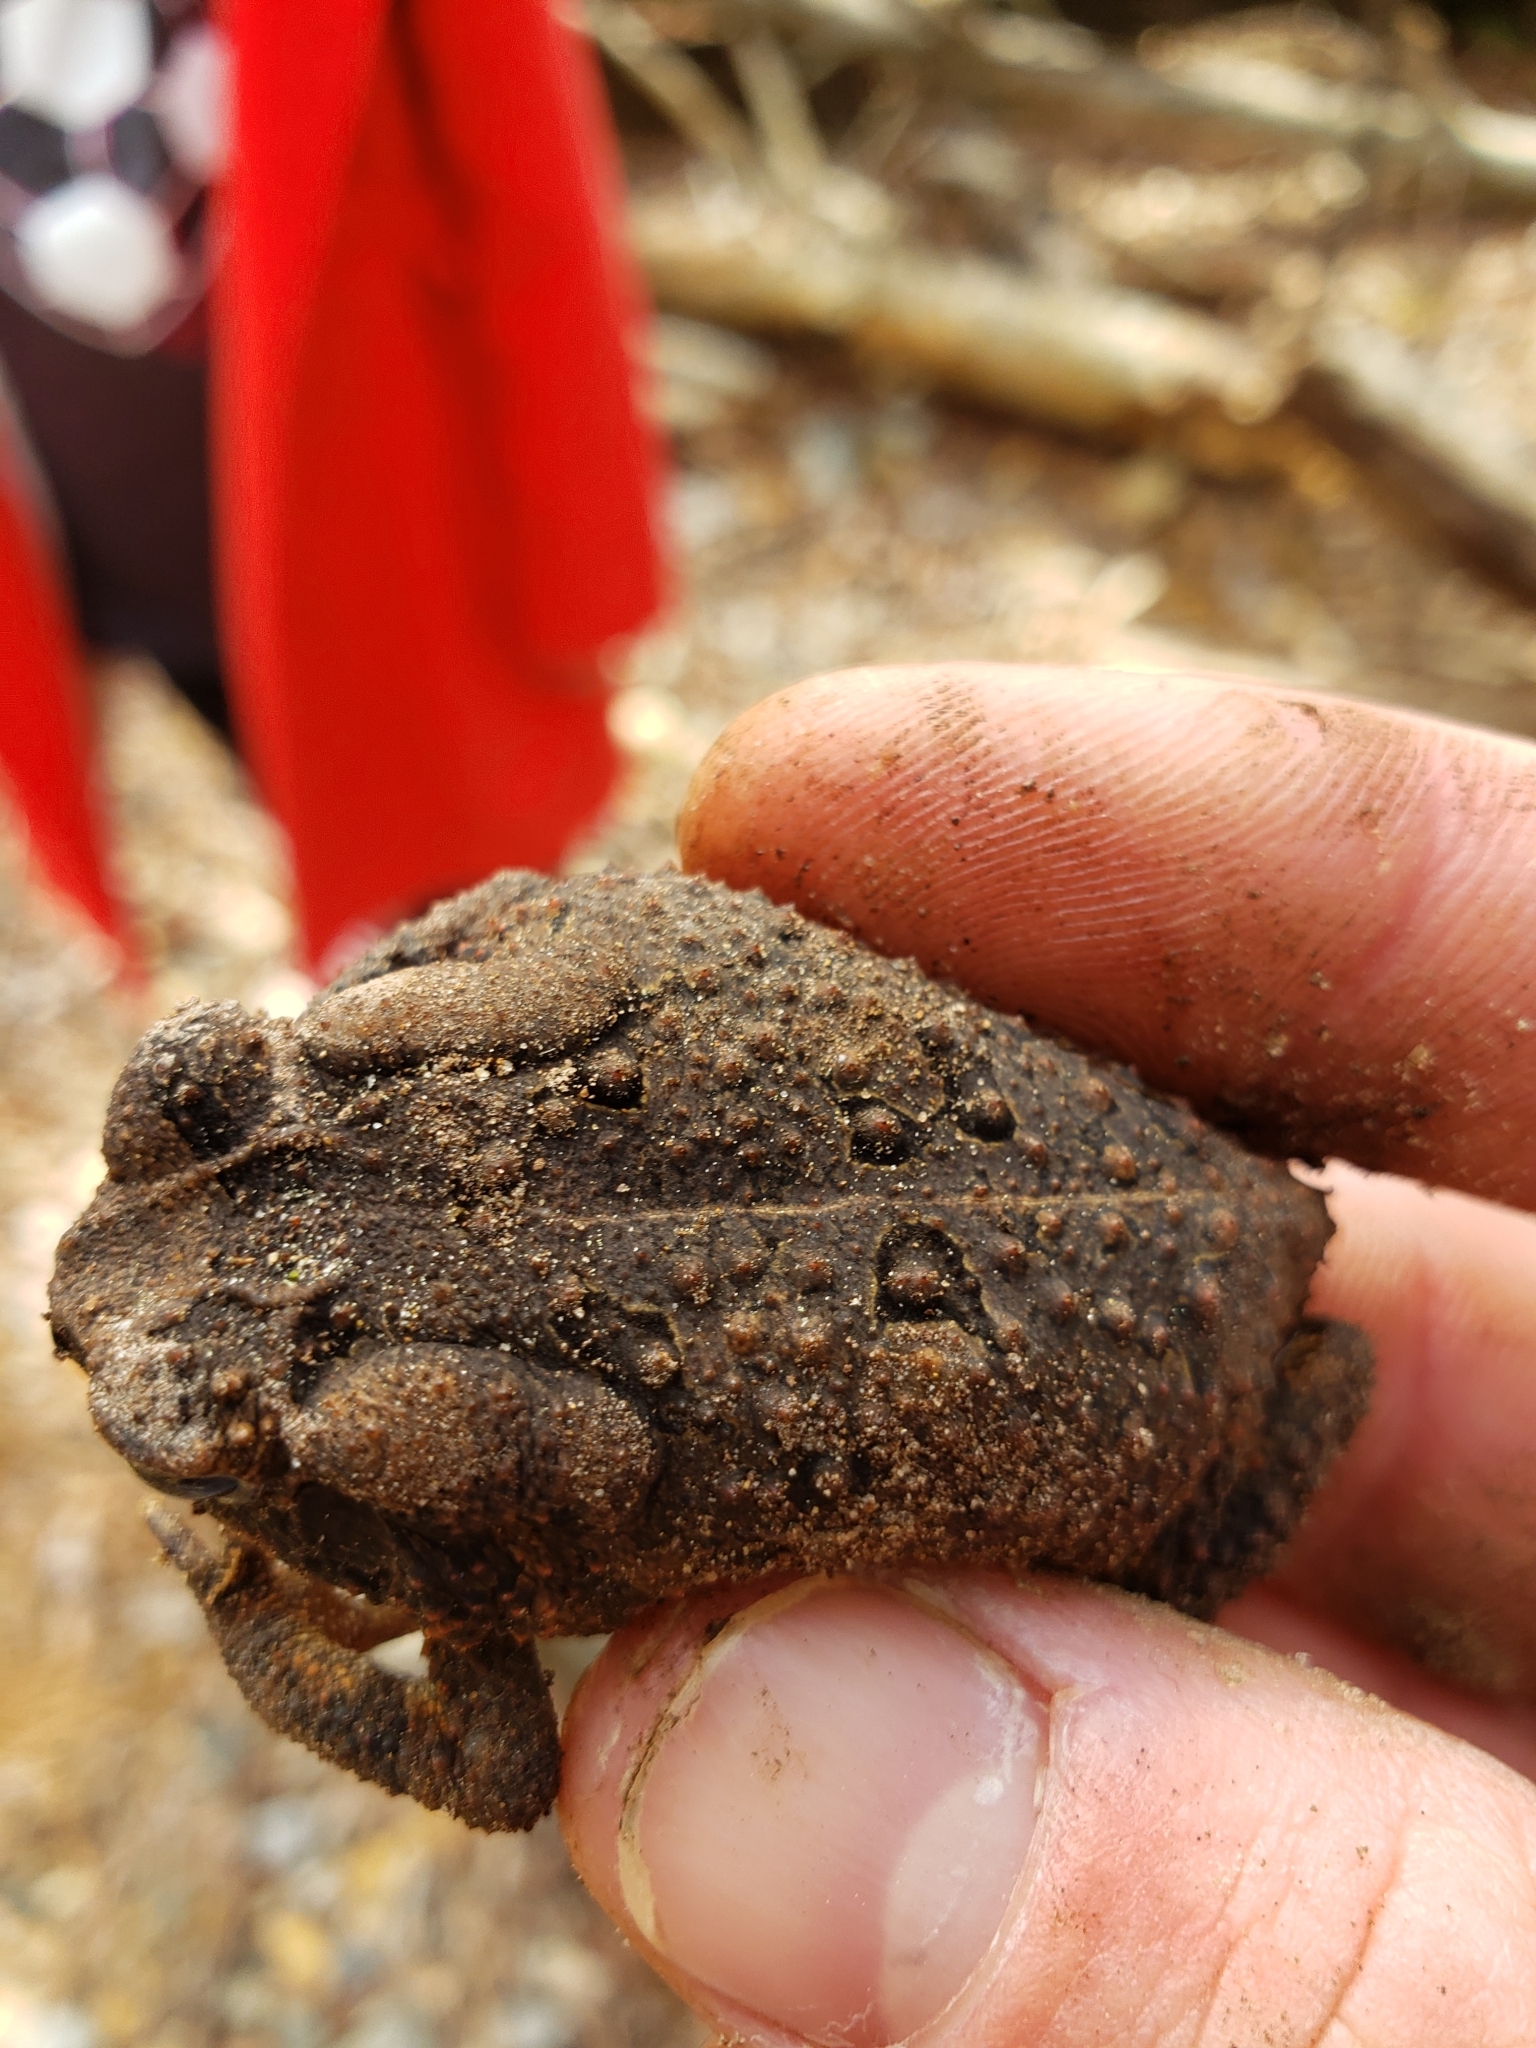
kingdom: Animalia
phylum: Chordata
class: Amphibia
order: Anura
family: Bufonidae
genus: Anaxyrus
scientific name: Anaxyrus americanus
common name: American toad
